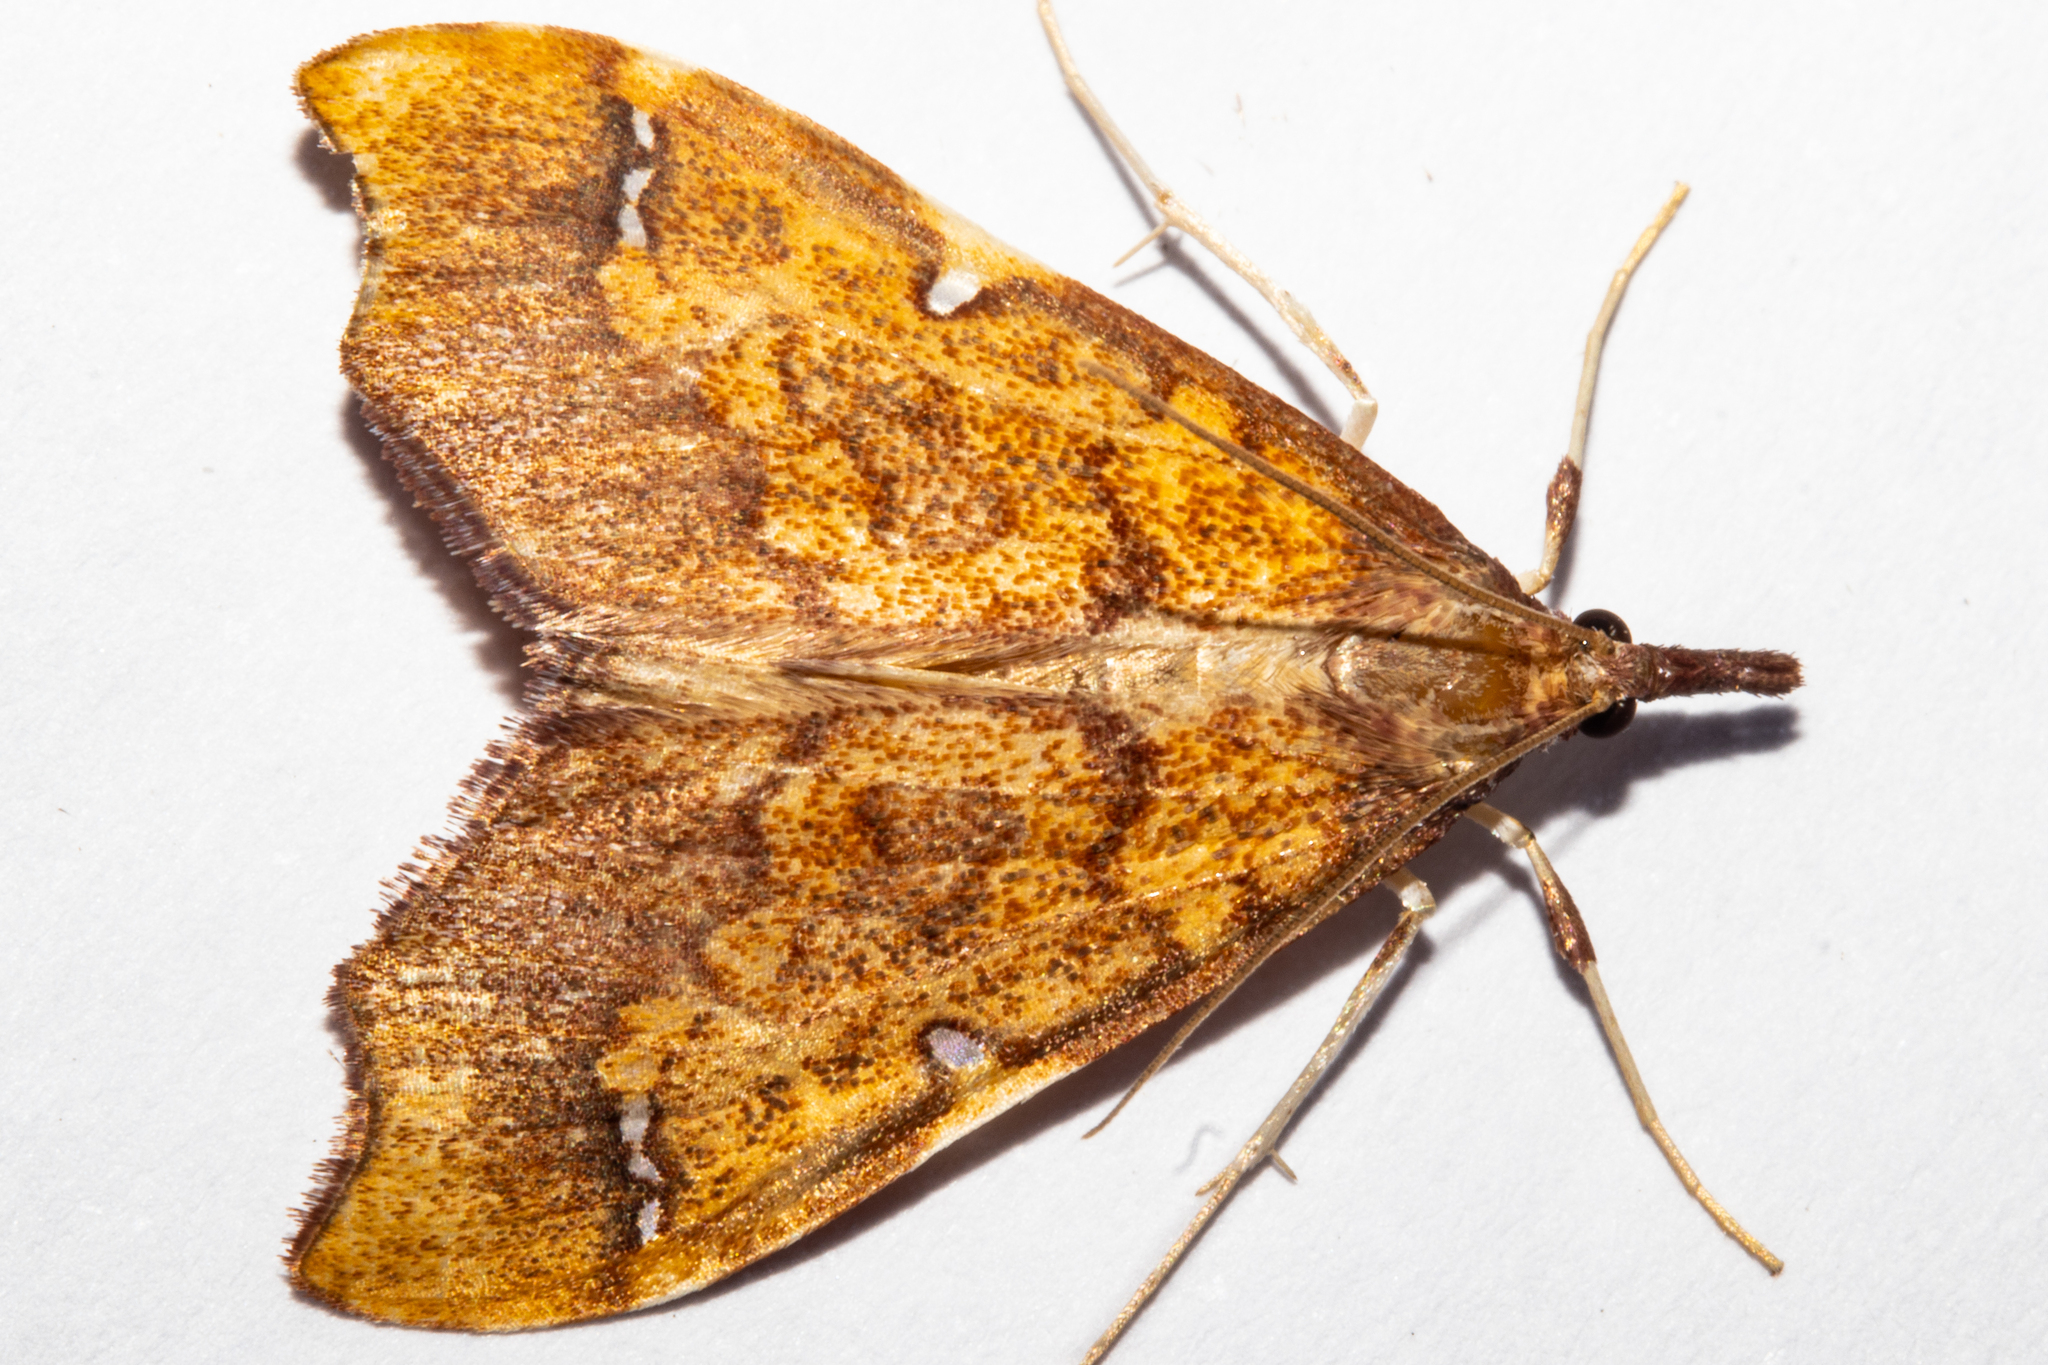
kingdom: Animalia
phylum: Arthropoda
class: Insecta
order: Lepidoptera
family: Crambidae
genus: Deana
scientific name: Deana hybreasalis
